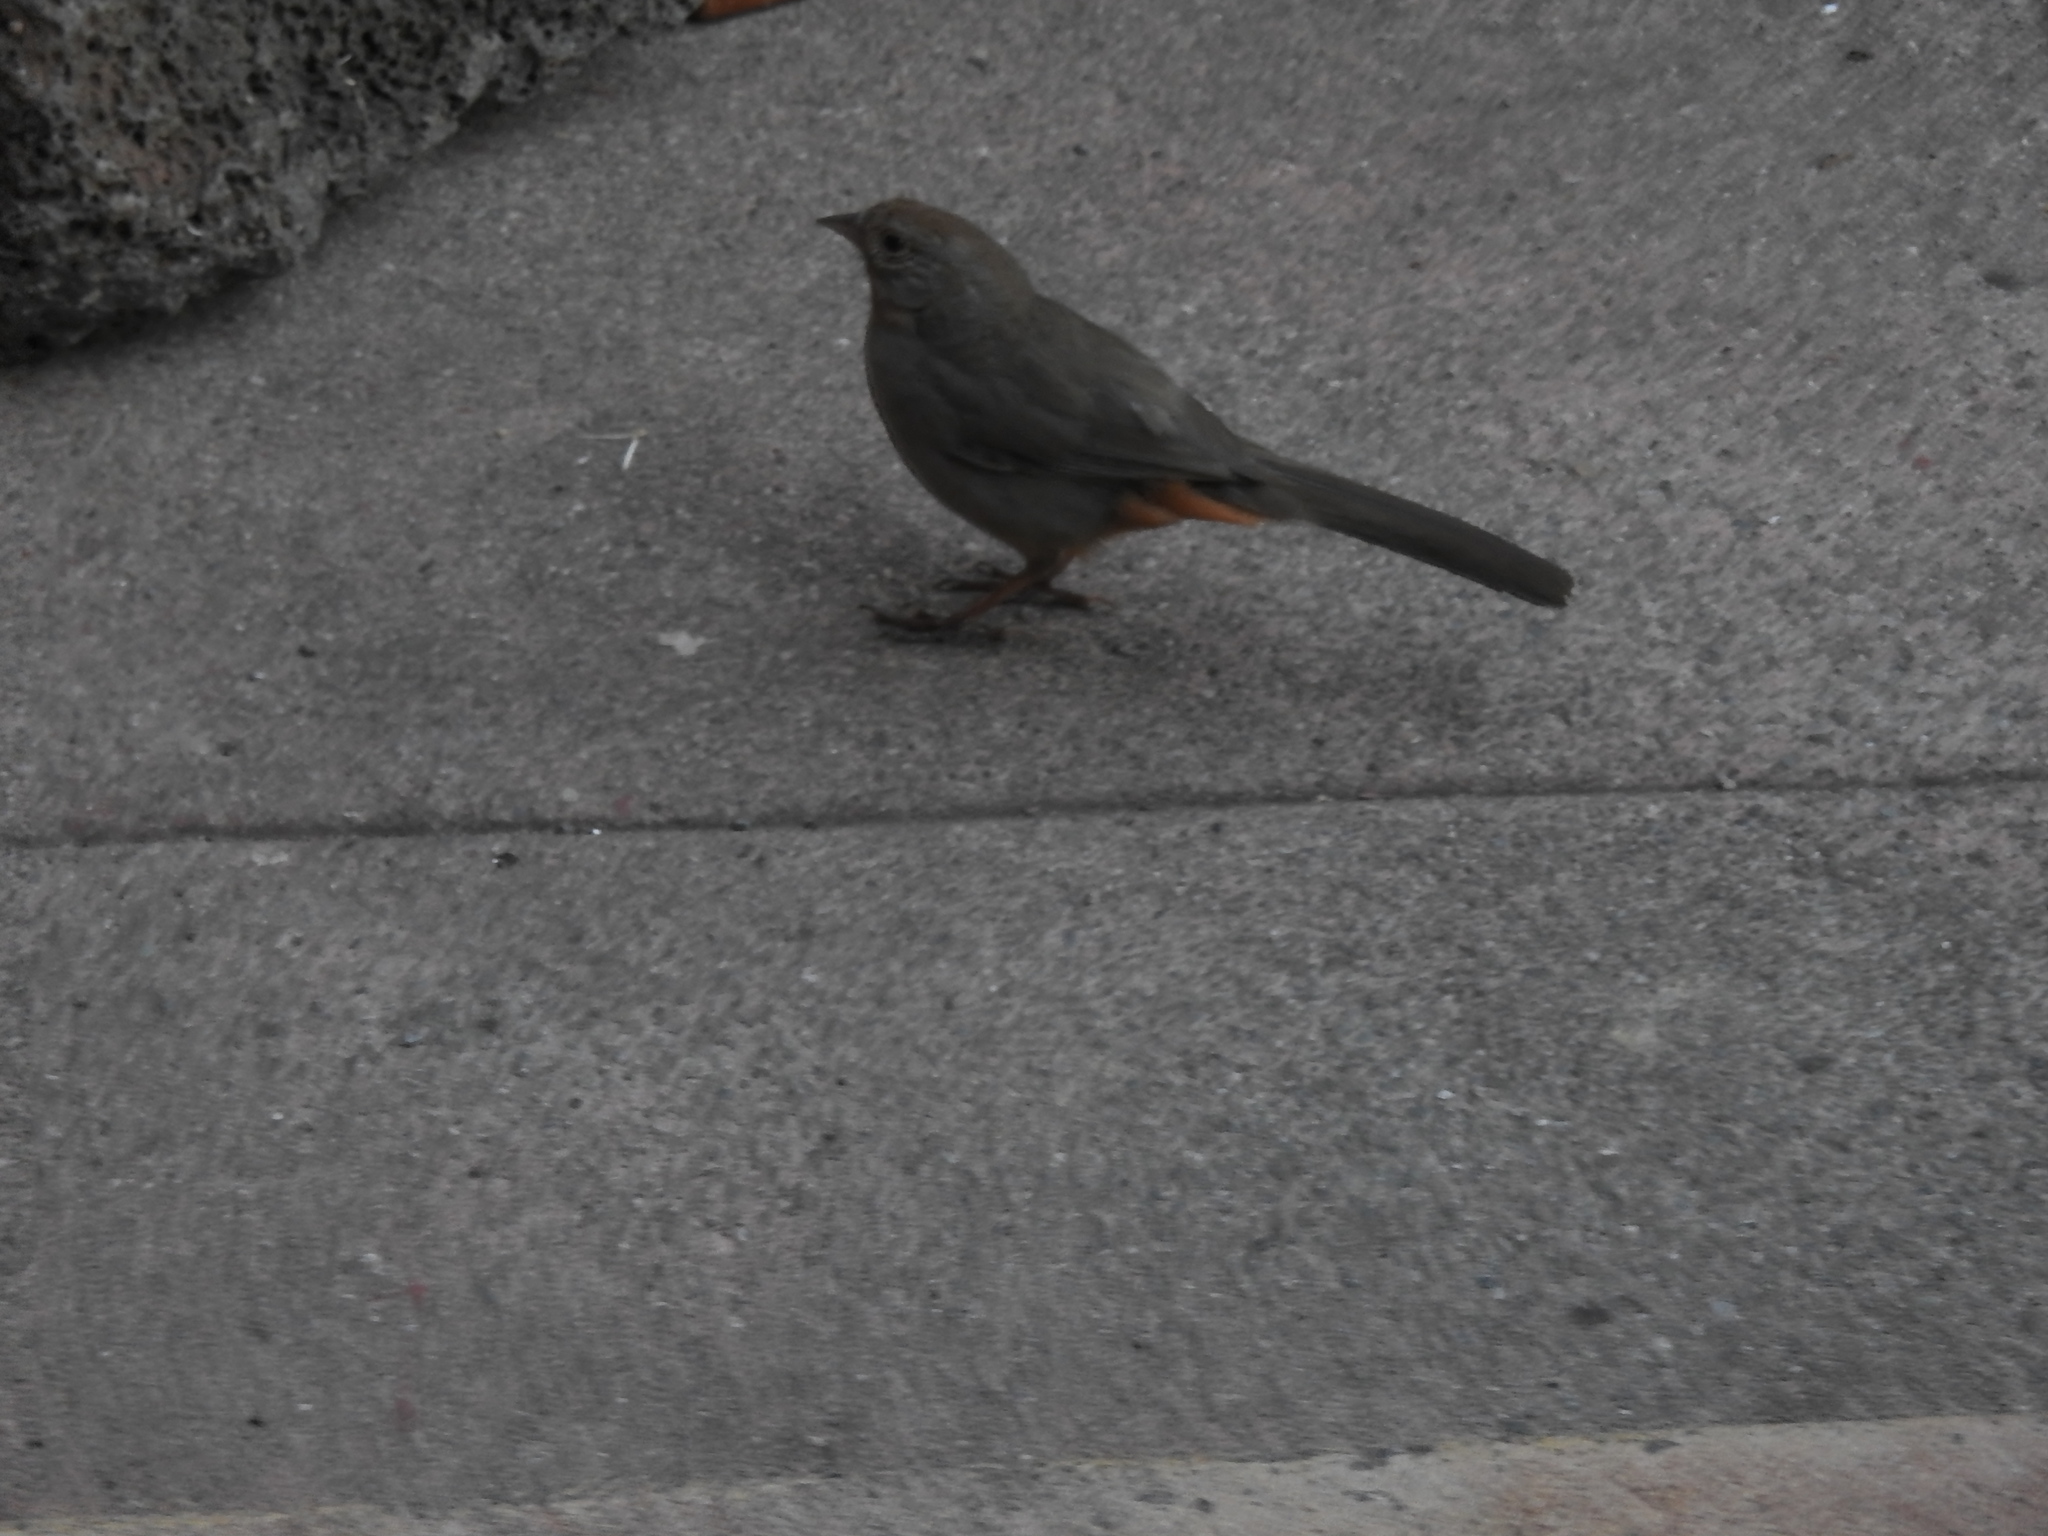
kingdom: Animalia
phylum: Chordata
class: Aves
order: Passeriformes
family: Passerellidae
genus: Melozone
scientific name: Melozone crissalis
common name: California towhee
